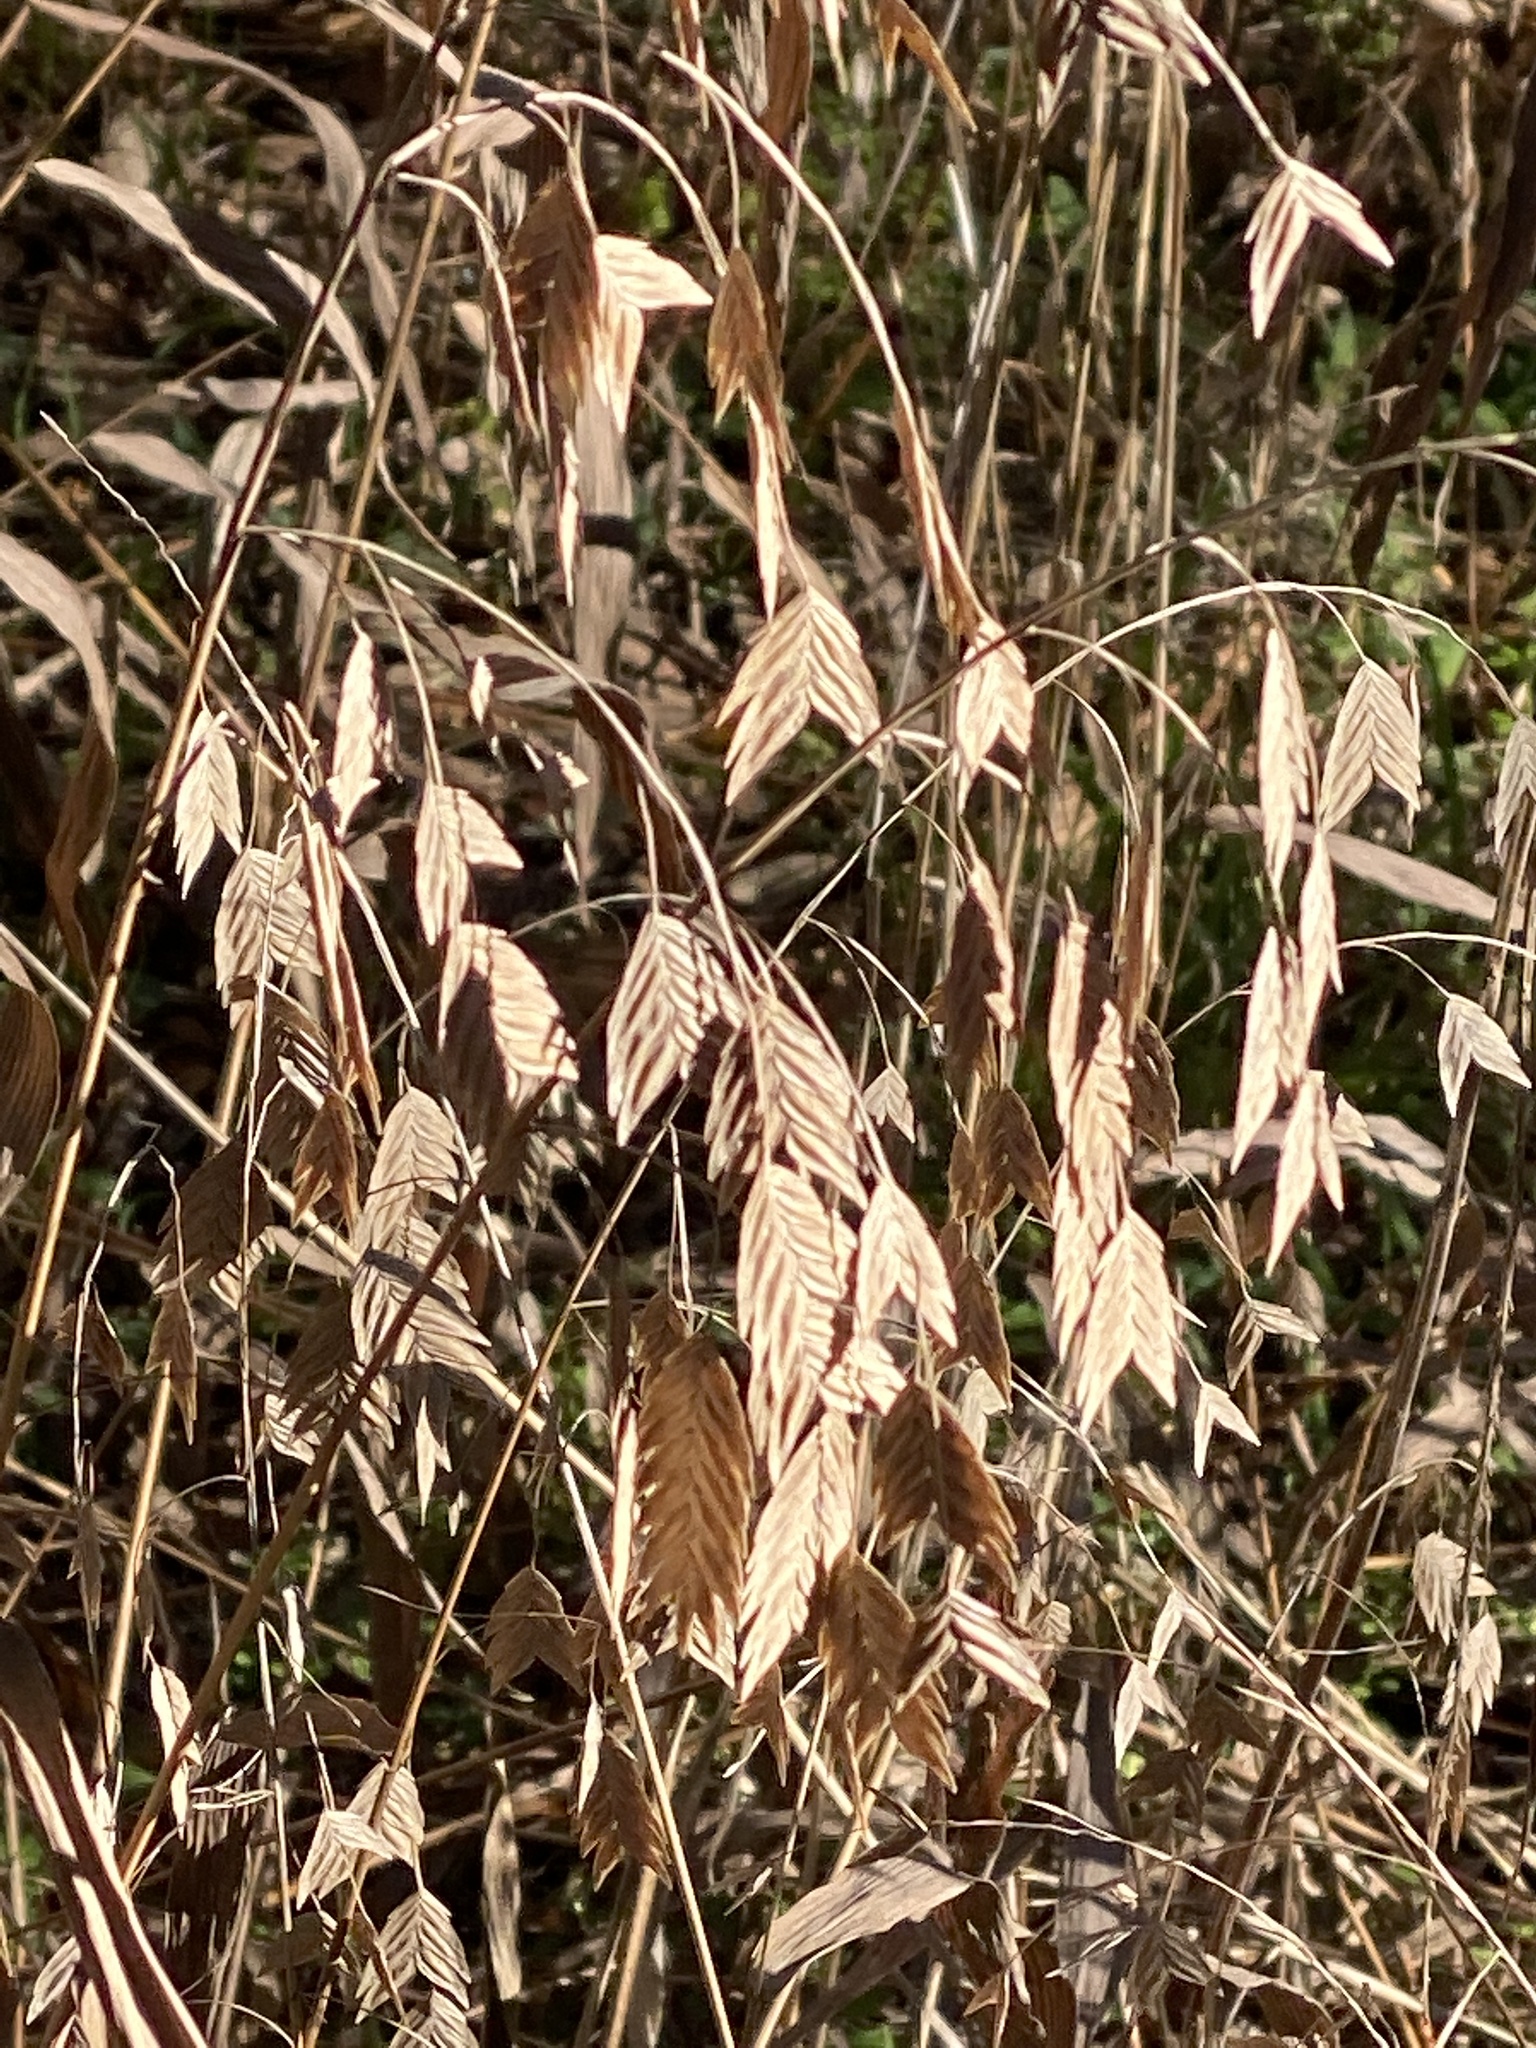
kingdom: Plantae
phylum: Tracheophyta
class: Liliopsida
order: Poales
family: Poaceae
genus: Chasmanthium
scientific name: Chasmanthium latifolium
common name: Broad-leaved chasmanthium
